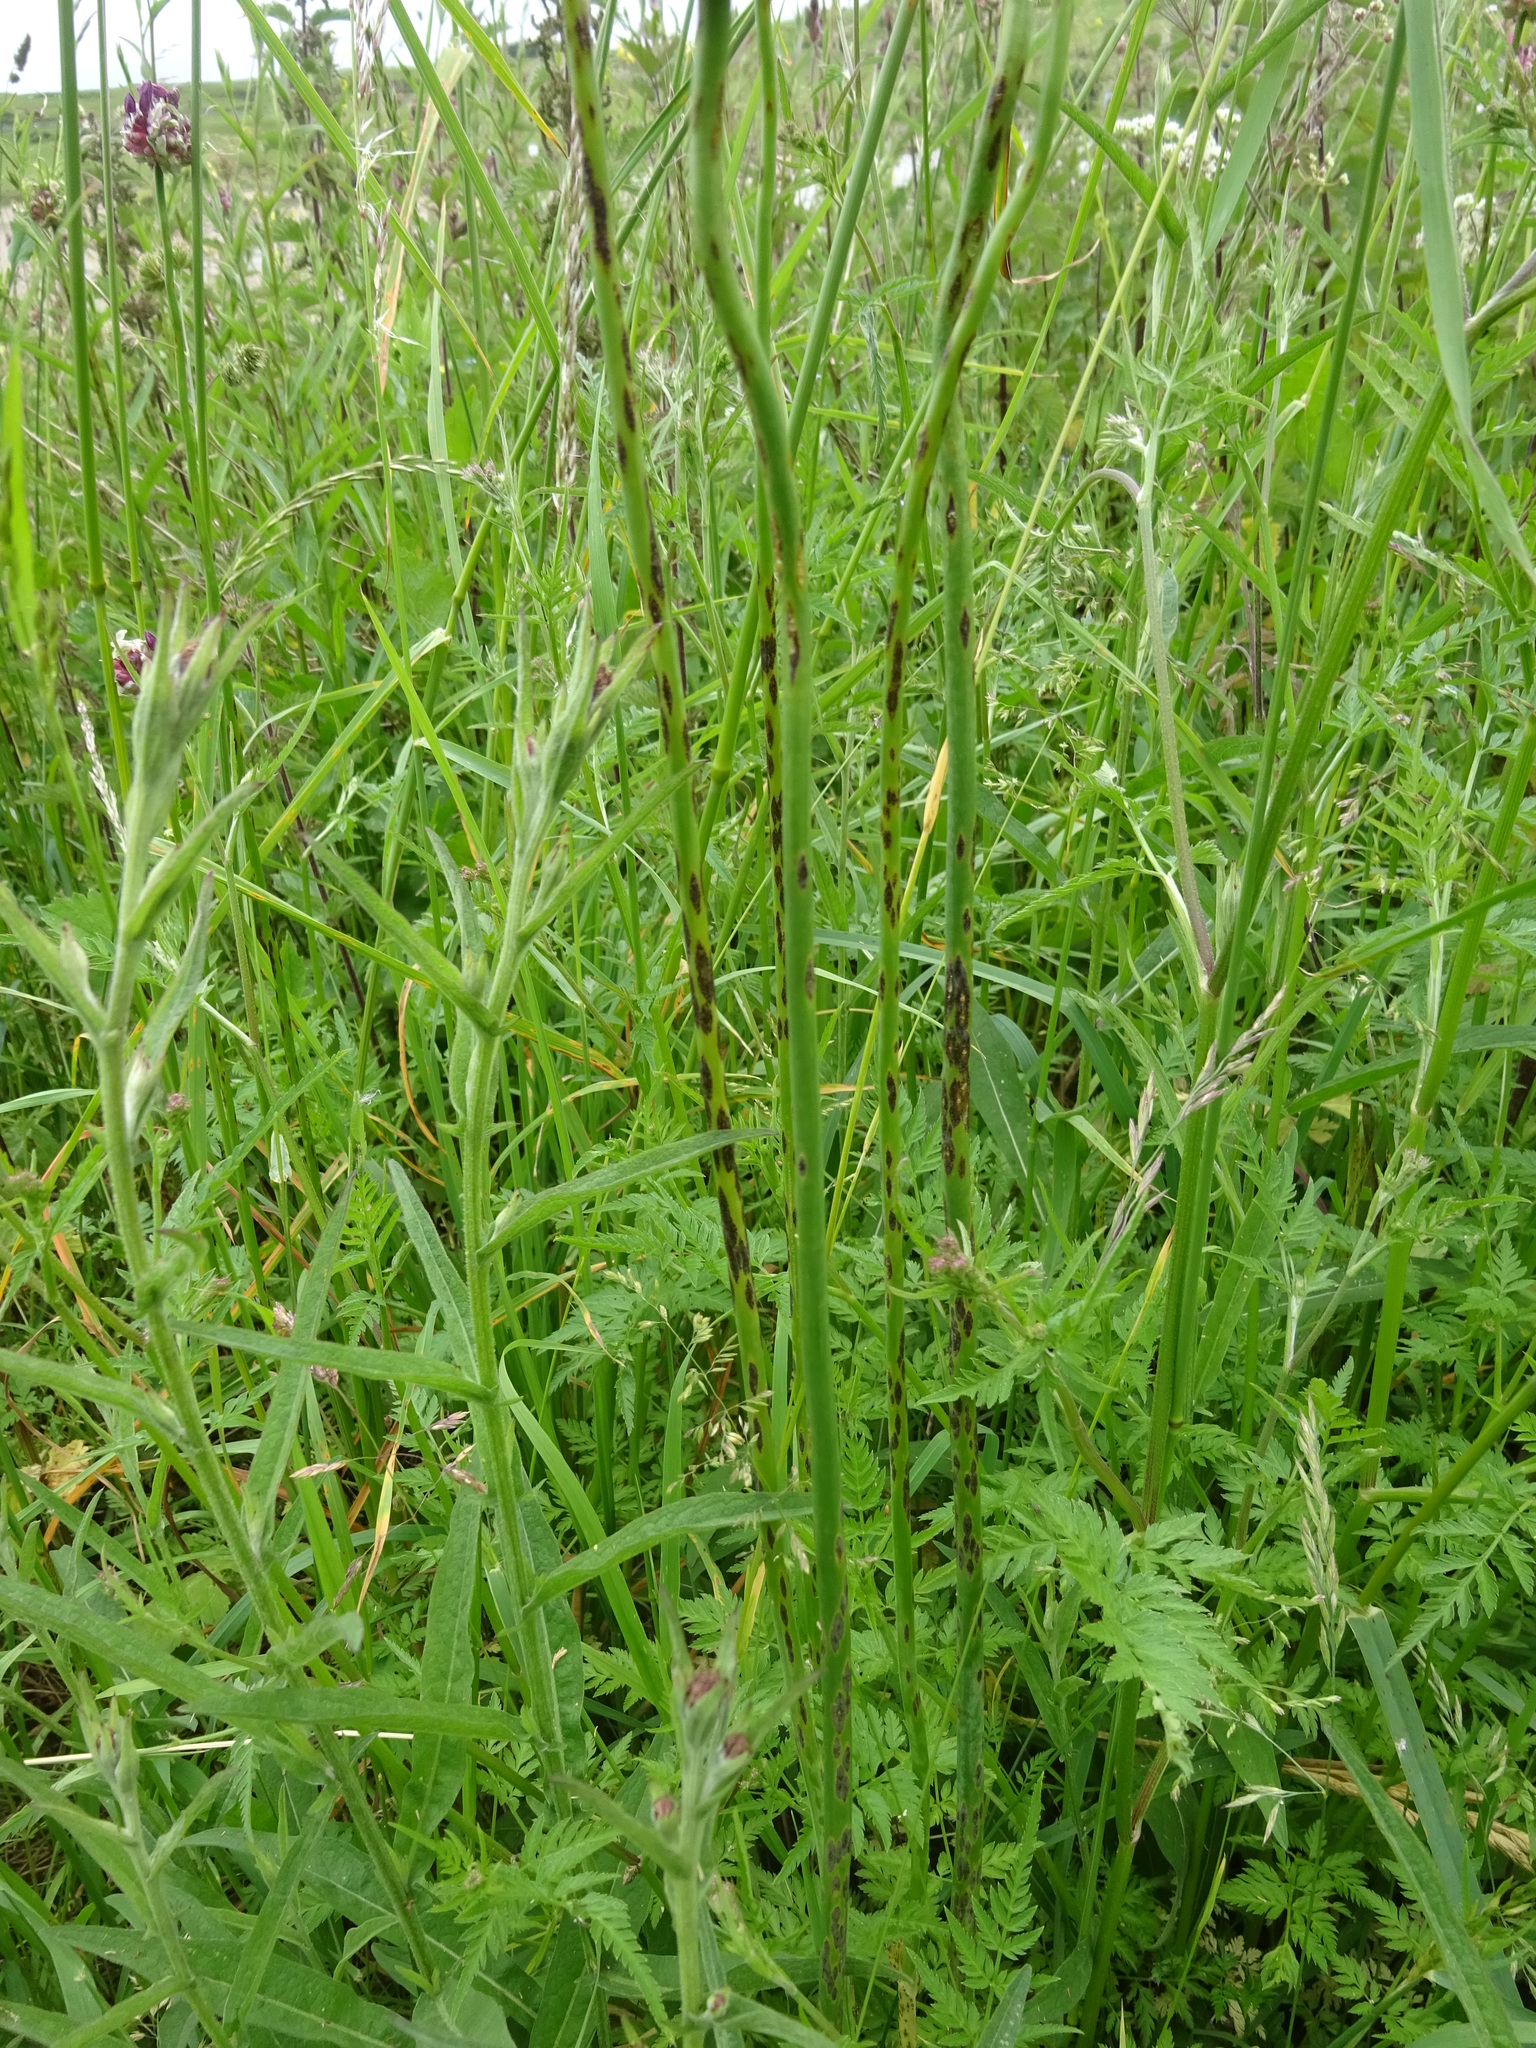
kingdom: Plantae
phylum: Tracheophyta
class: Liliopsida
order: Asparagales
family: Amaryllidaceae
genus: Allium
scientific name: Allium scorodoprasum
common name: Sand leek
